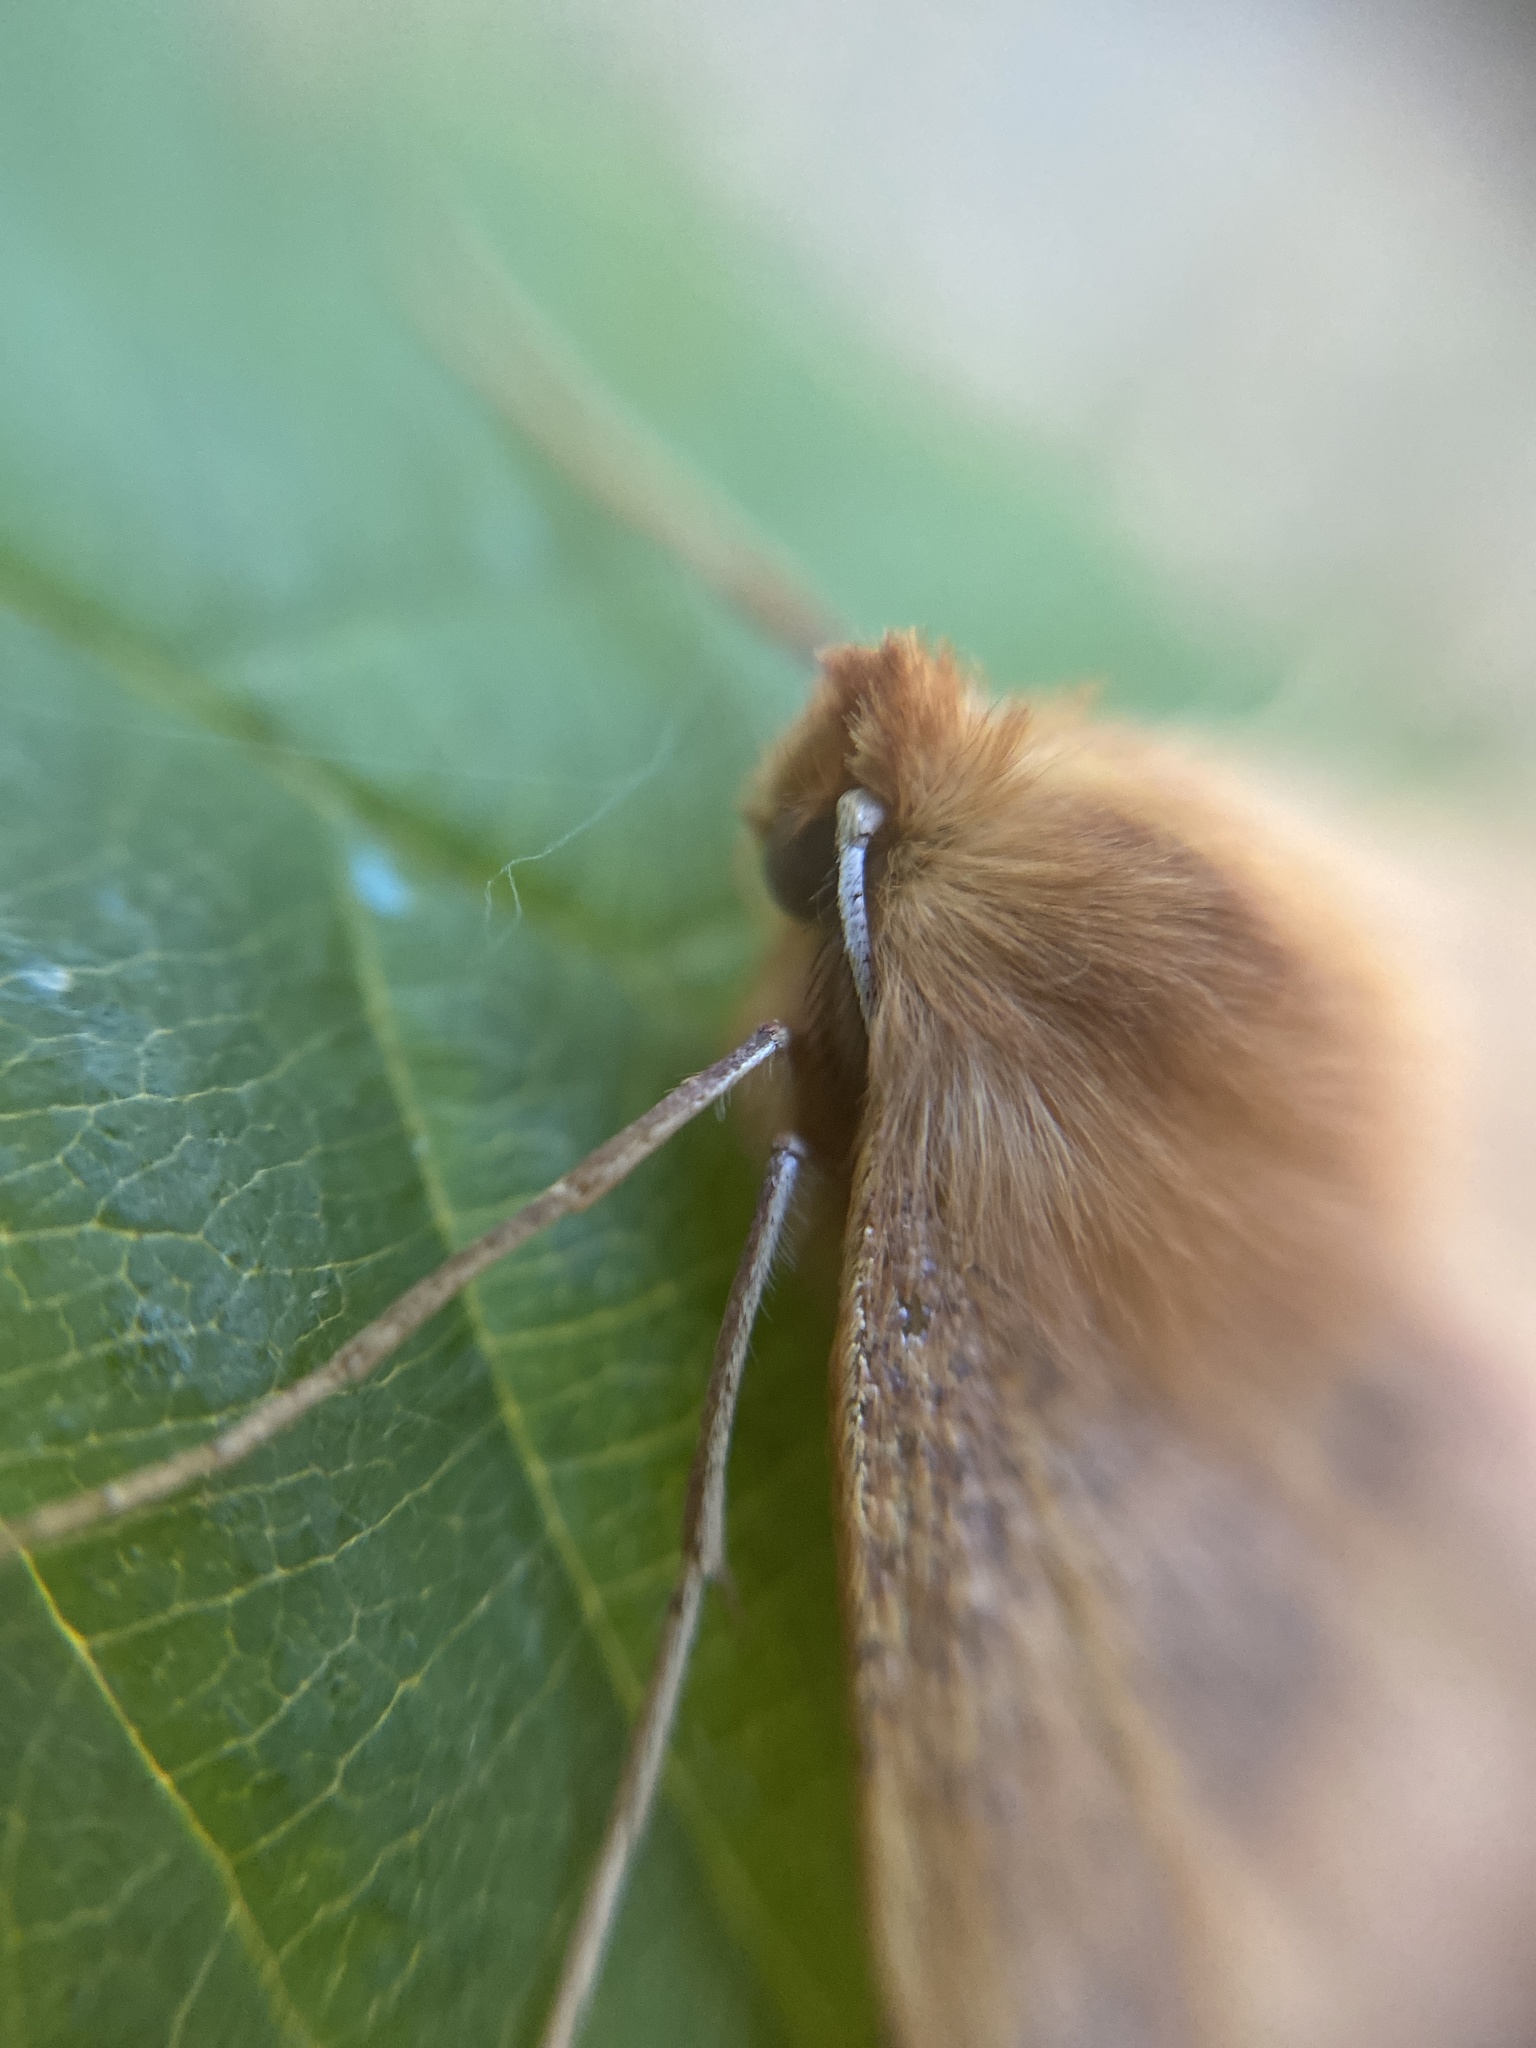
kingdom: Animalia
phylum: Arthropoda
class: Insecta
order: Lepidoptera
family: Geometridae
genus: Colotois
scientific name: Colotois pennaria
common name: Feathered thorn
